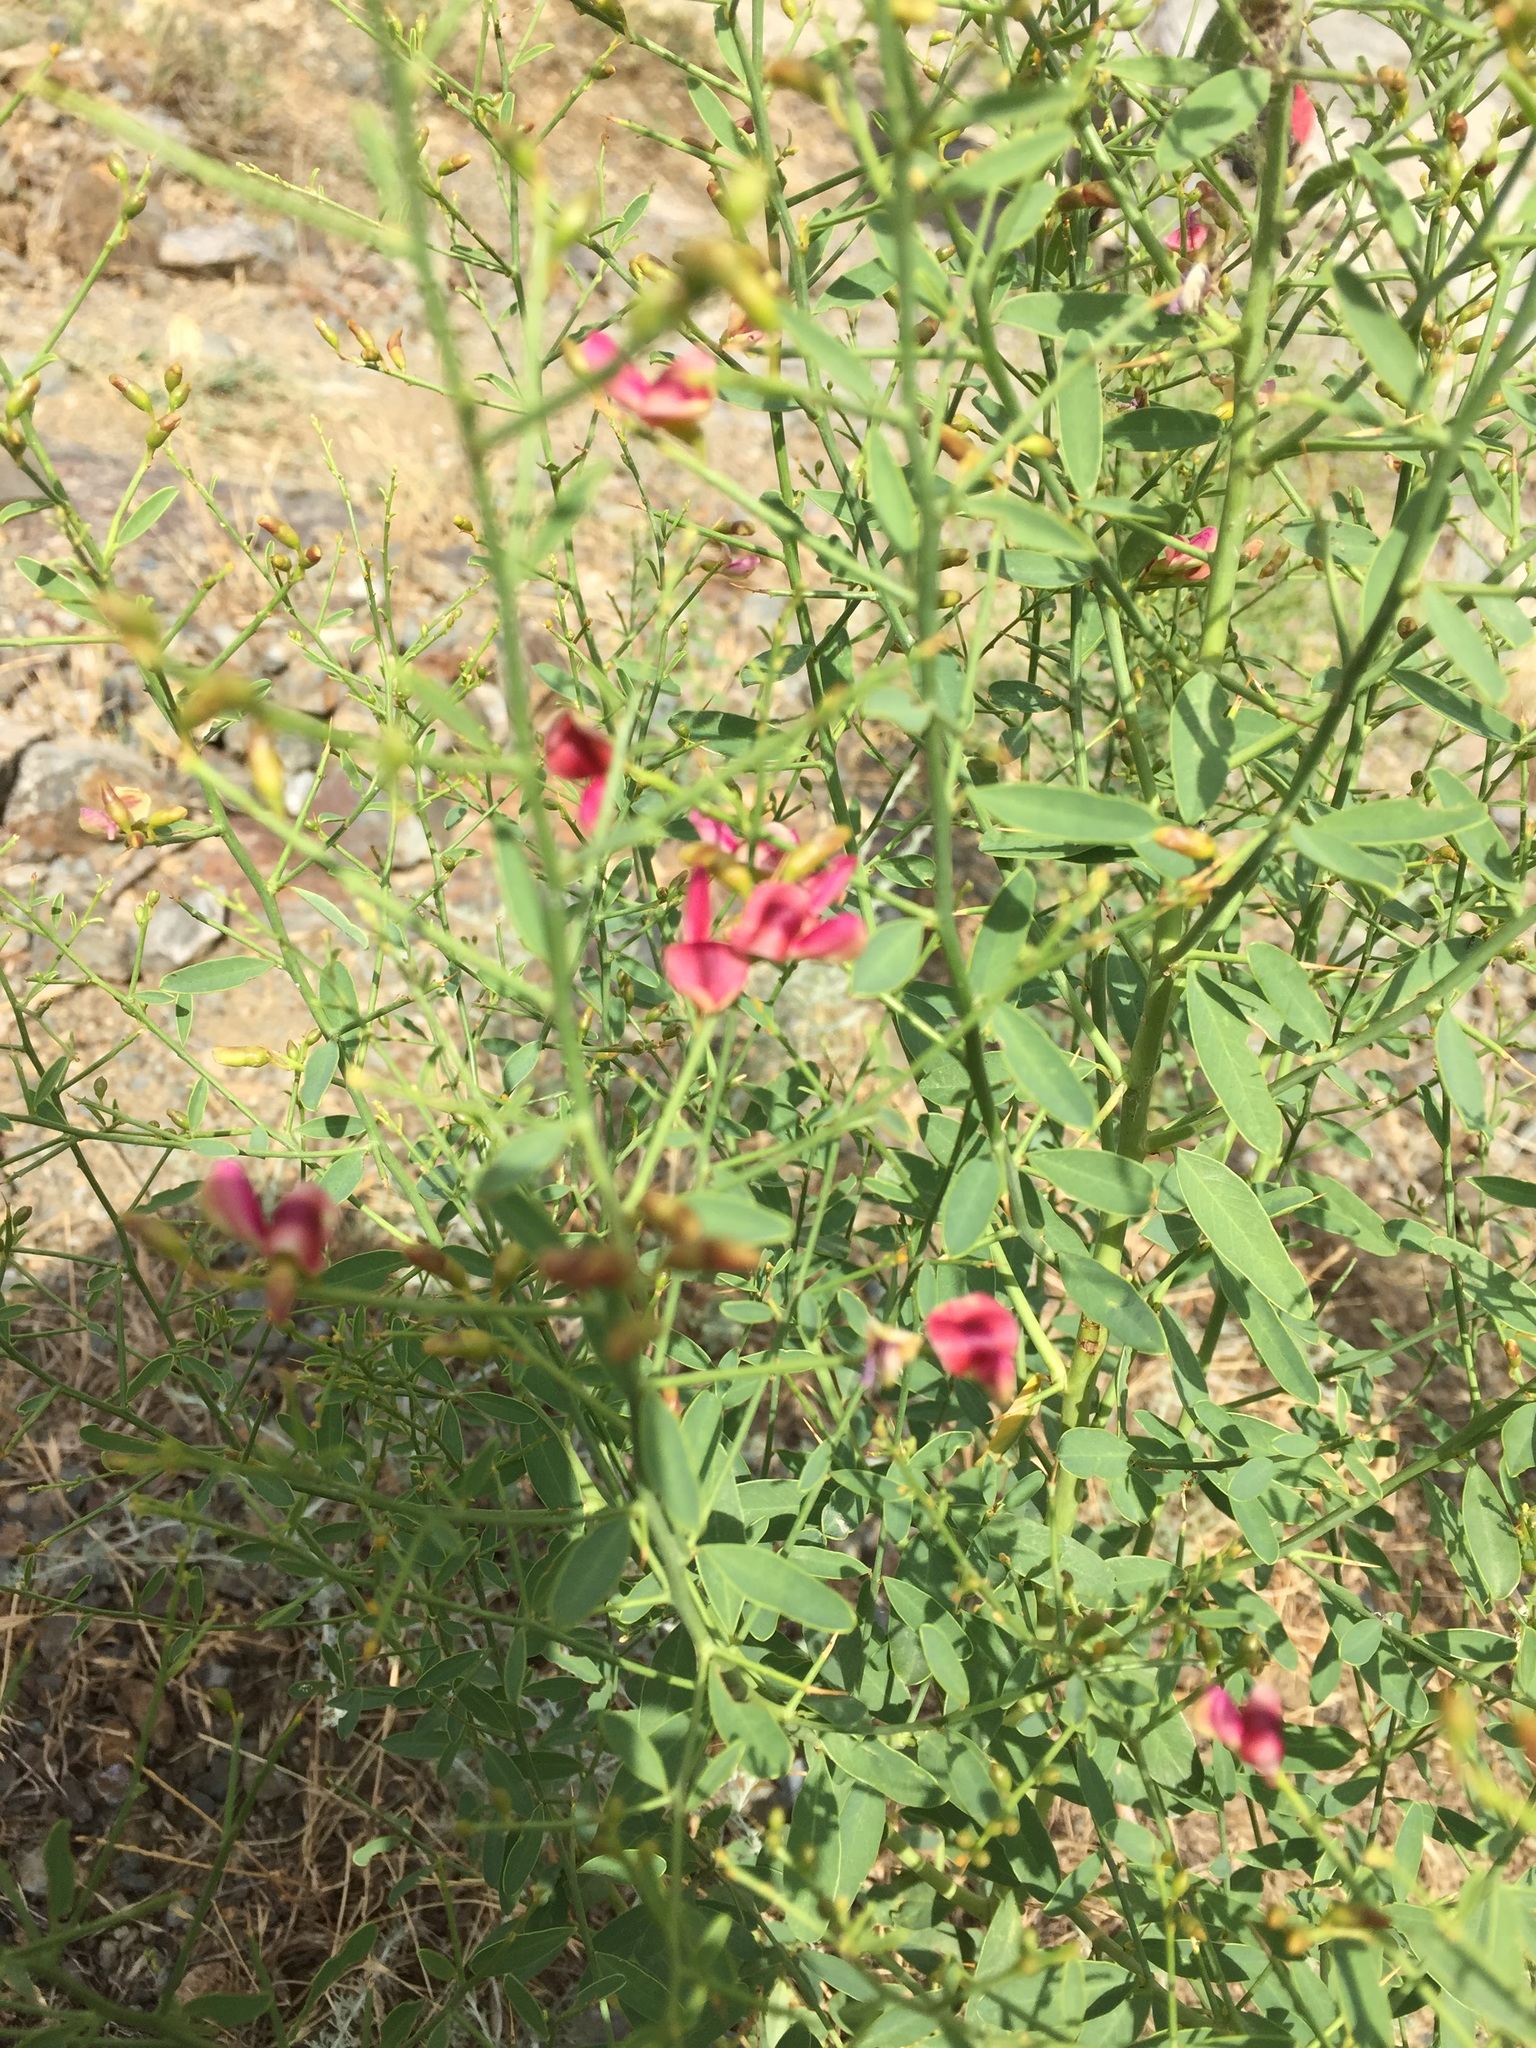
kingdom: Plantae
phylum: Tracheophyta
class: Magnoliopsida
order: Fabales
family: Fabaceae
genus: Alhagi
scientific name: Alhagi maurorum
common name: Camelthorn
